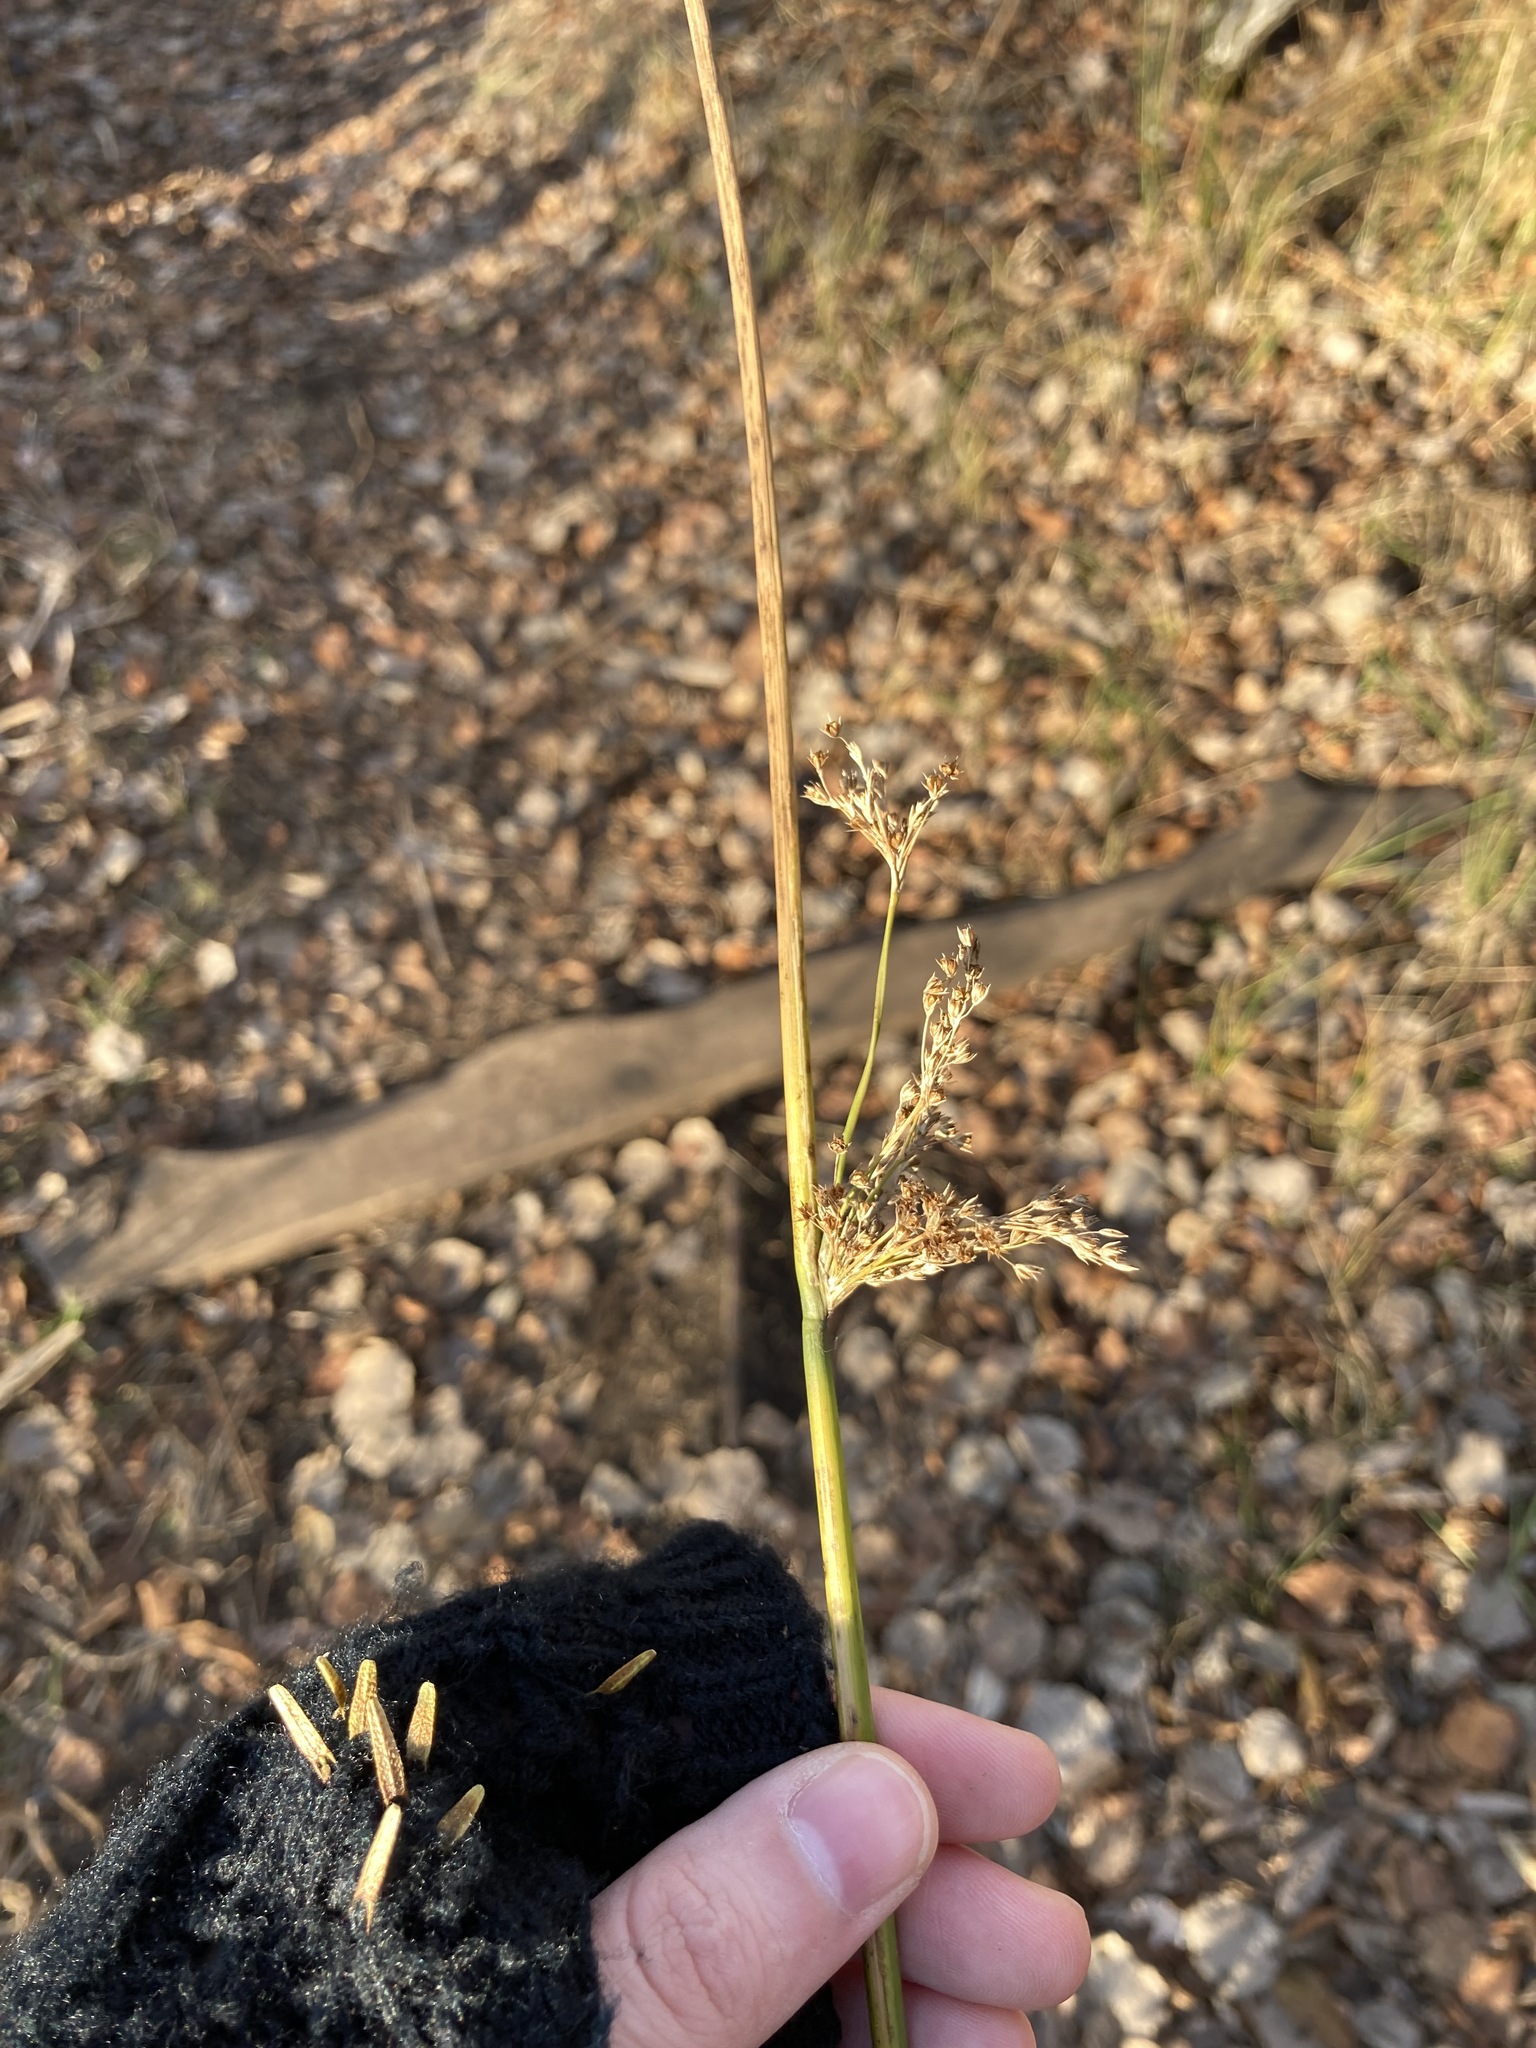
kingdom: Plantae
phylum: Tracheophyta
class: Liliopsida
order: Poales
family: Juncaceae
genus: Juncus
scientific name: Juncus effusus
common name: Soft rush
